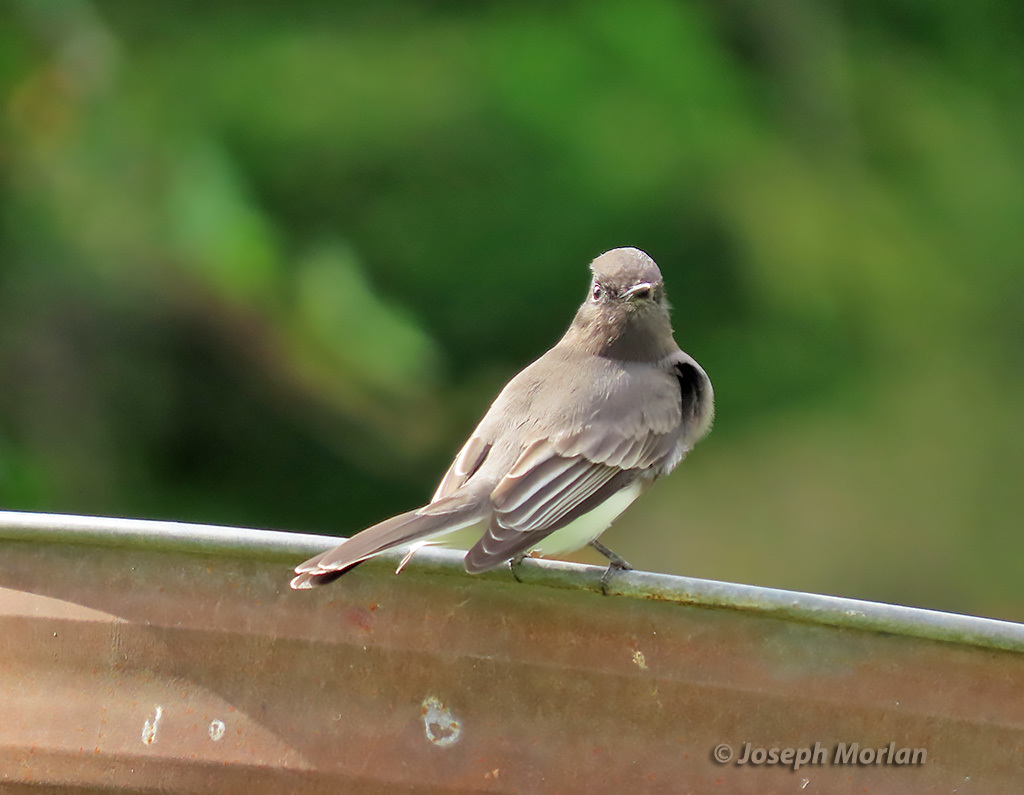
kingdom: Animalia
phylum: Chordata
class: Aves
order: Passeriformes
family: Tyrannidae
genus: Sayornis
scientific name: Sayornis nigricans
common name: Black phoebe
